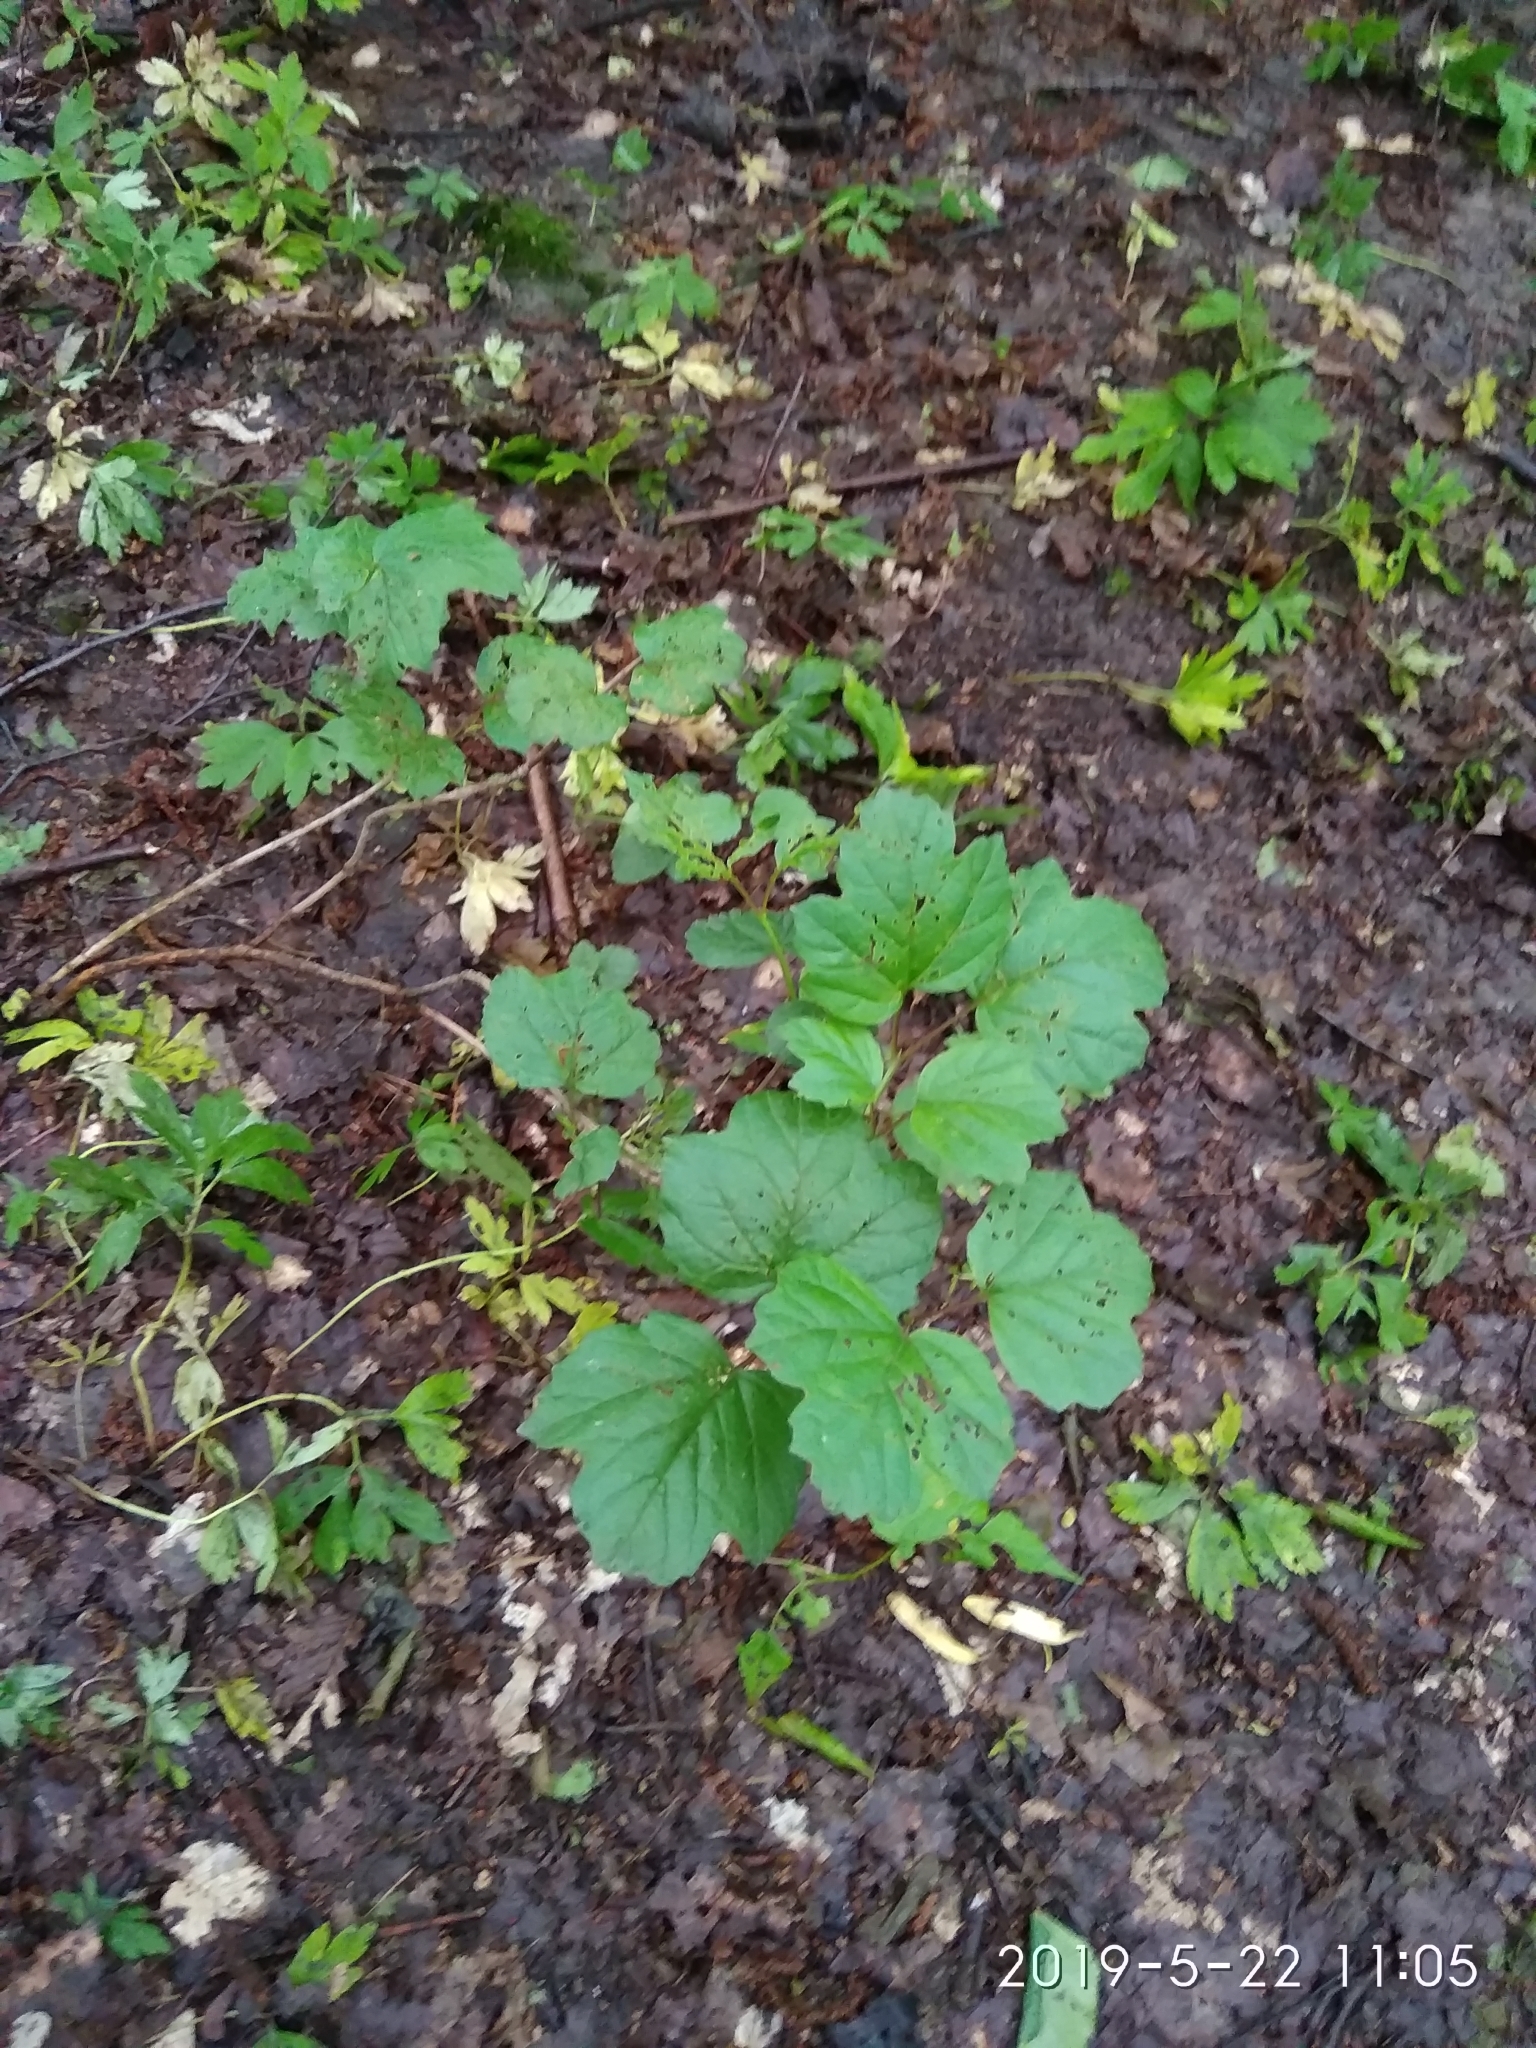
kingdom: Plantae
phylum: Tracheophyta
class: Magnoliopsida
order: Dipsacales
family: Viburnaceae
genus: Viburnum
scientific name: Viburnum opulus
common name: Guelder-rose
